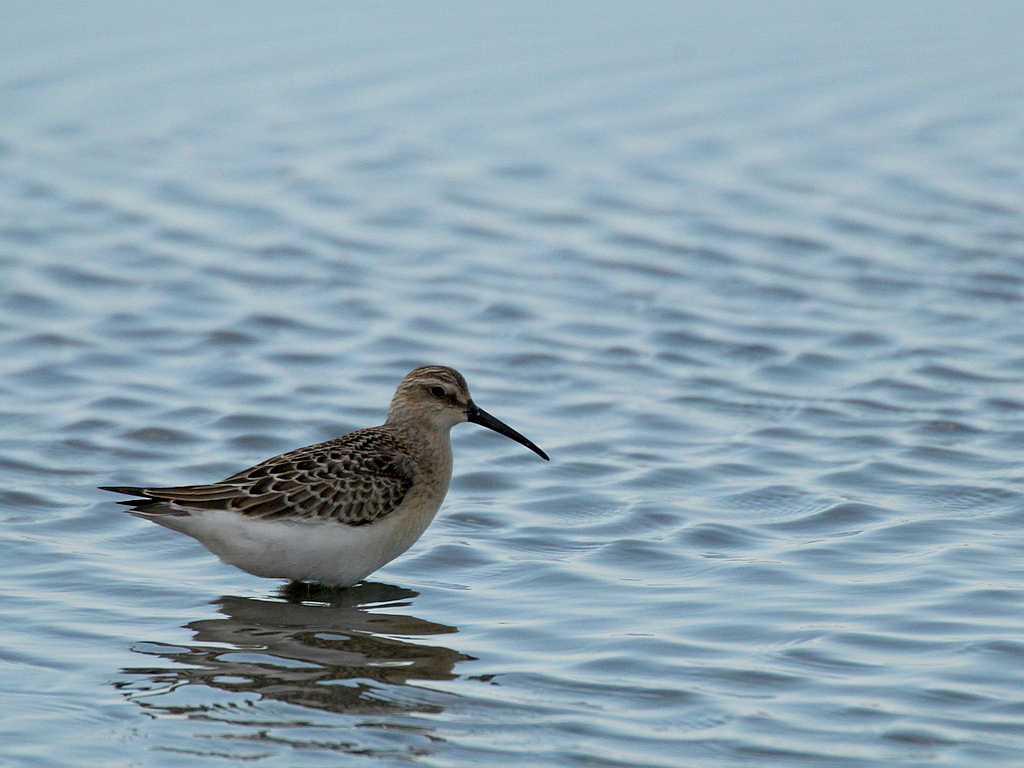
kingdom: Animalia
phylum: Chordata
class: Aves
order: Charadriiformes
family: Scolopacidae
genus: Calidris
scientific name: Calidris ferruginea
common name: Curlew sandpiper
